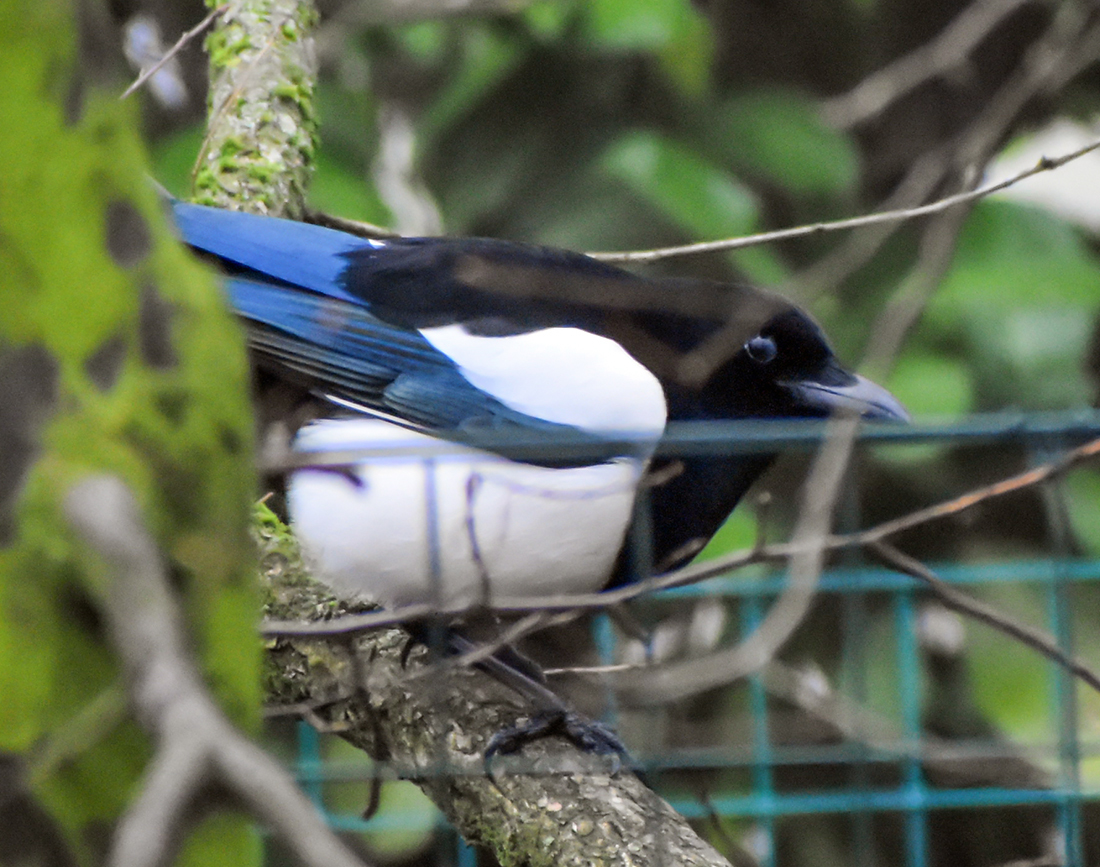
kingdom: Animalia
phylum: Chordata
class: Aves
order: Passeriformes
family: Corvidae
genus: Pica
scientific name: Pica pica
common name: Eurasian magpie
